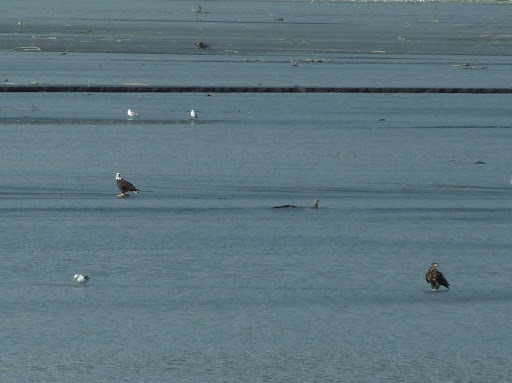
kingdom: Animalia
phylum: Chordata
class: Aves
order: Accipitriformes
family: Accipitridae
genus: Haliaeetus
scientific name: Haliaeetus leucocephalus
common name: Bald eagle
